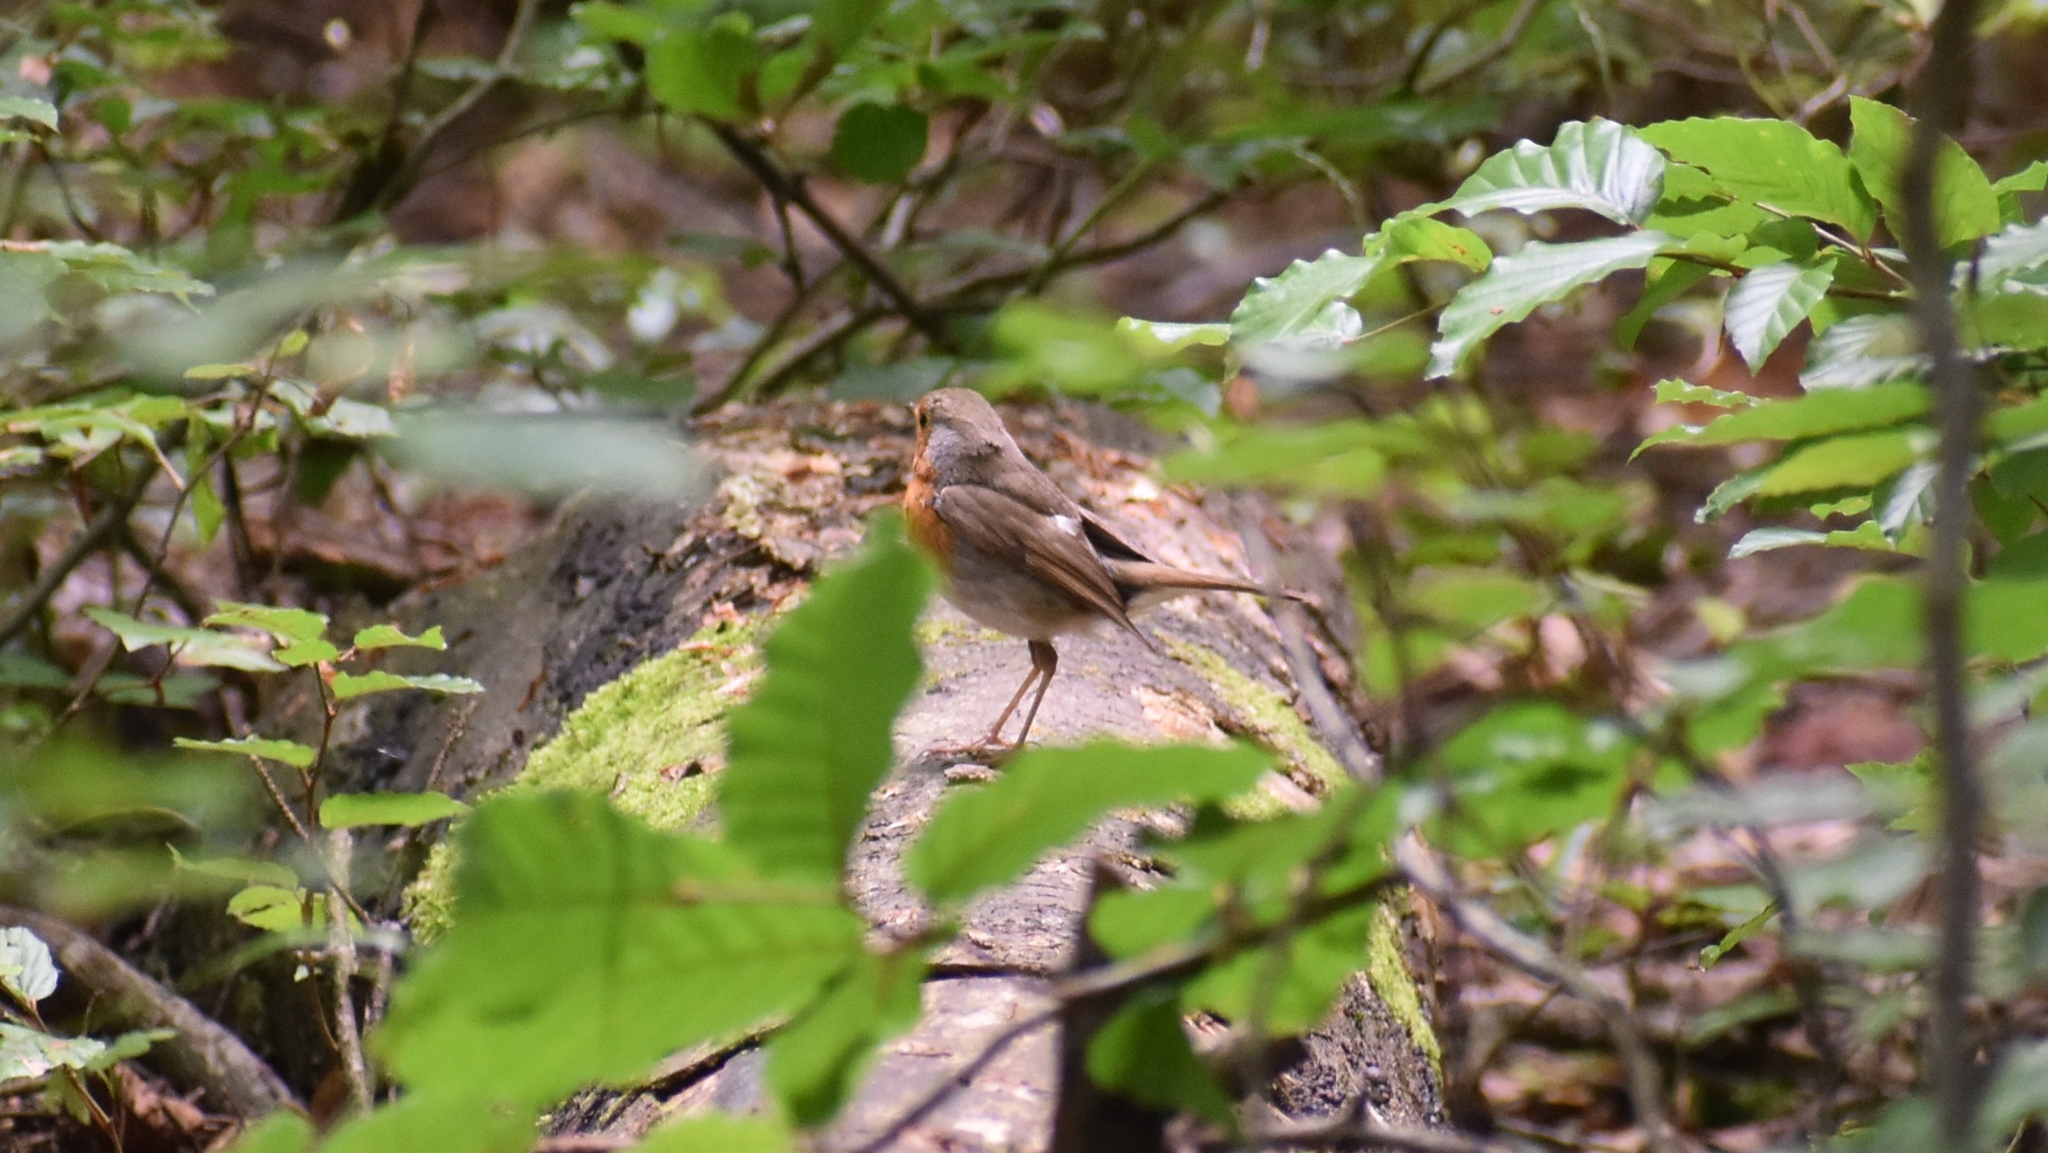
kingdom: Animalia
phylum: Chordata
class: Aves
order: Passeriformes
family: Muscicapidae
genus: Erithacus
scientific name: Erithacus rubecula
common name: European robin
